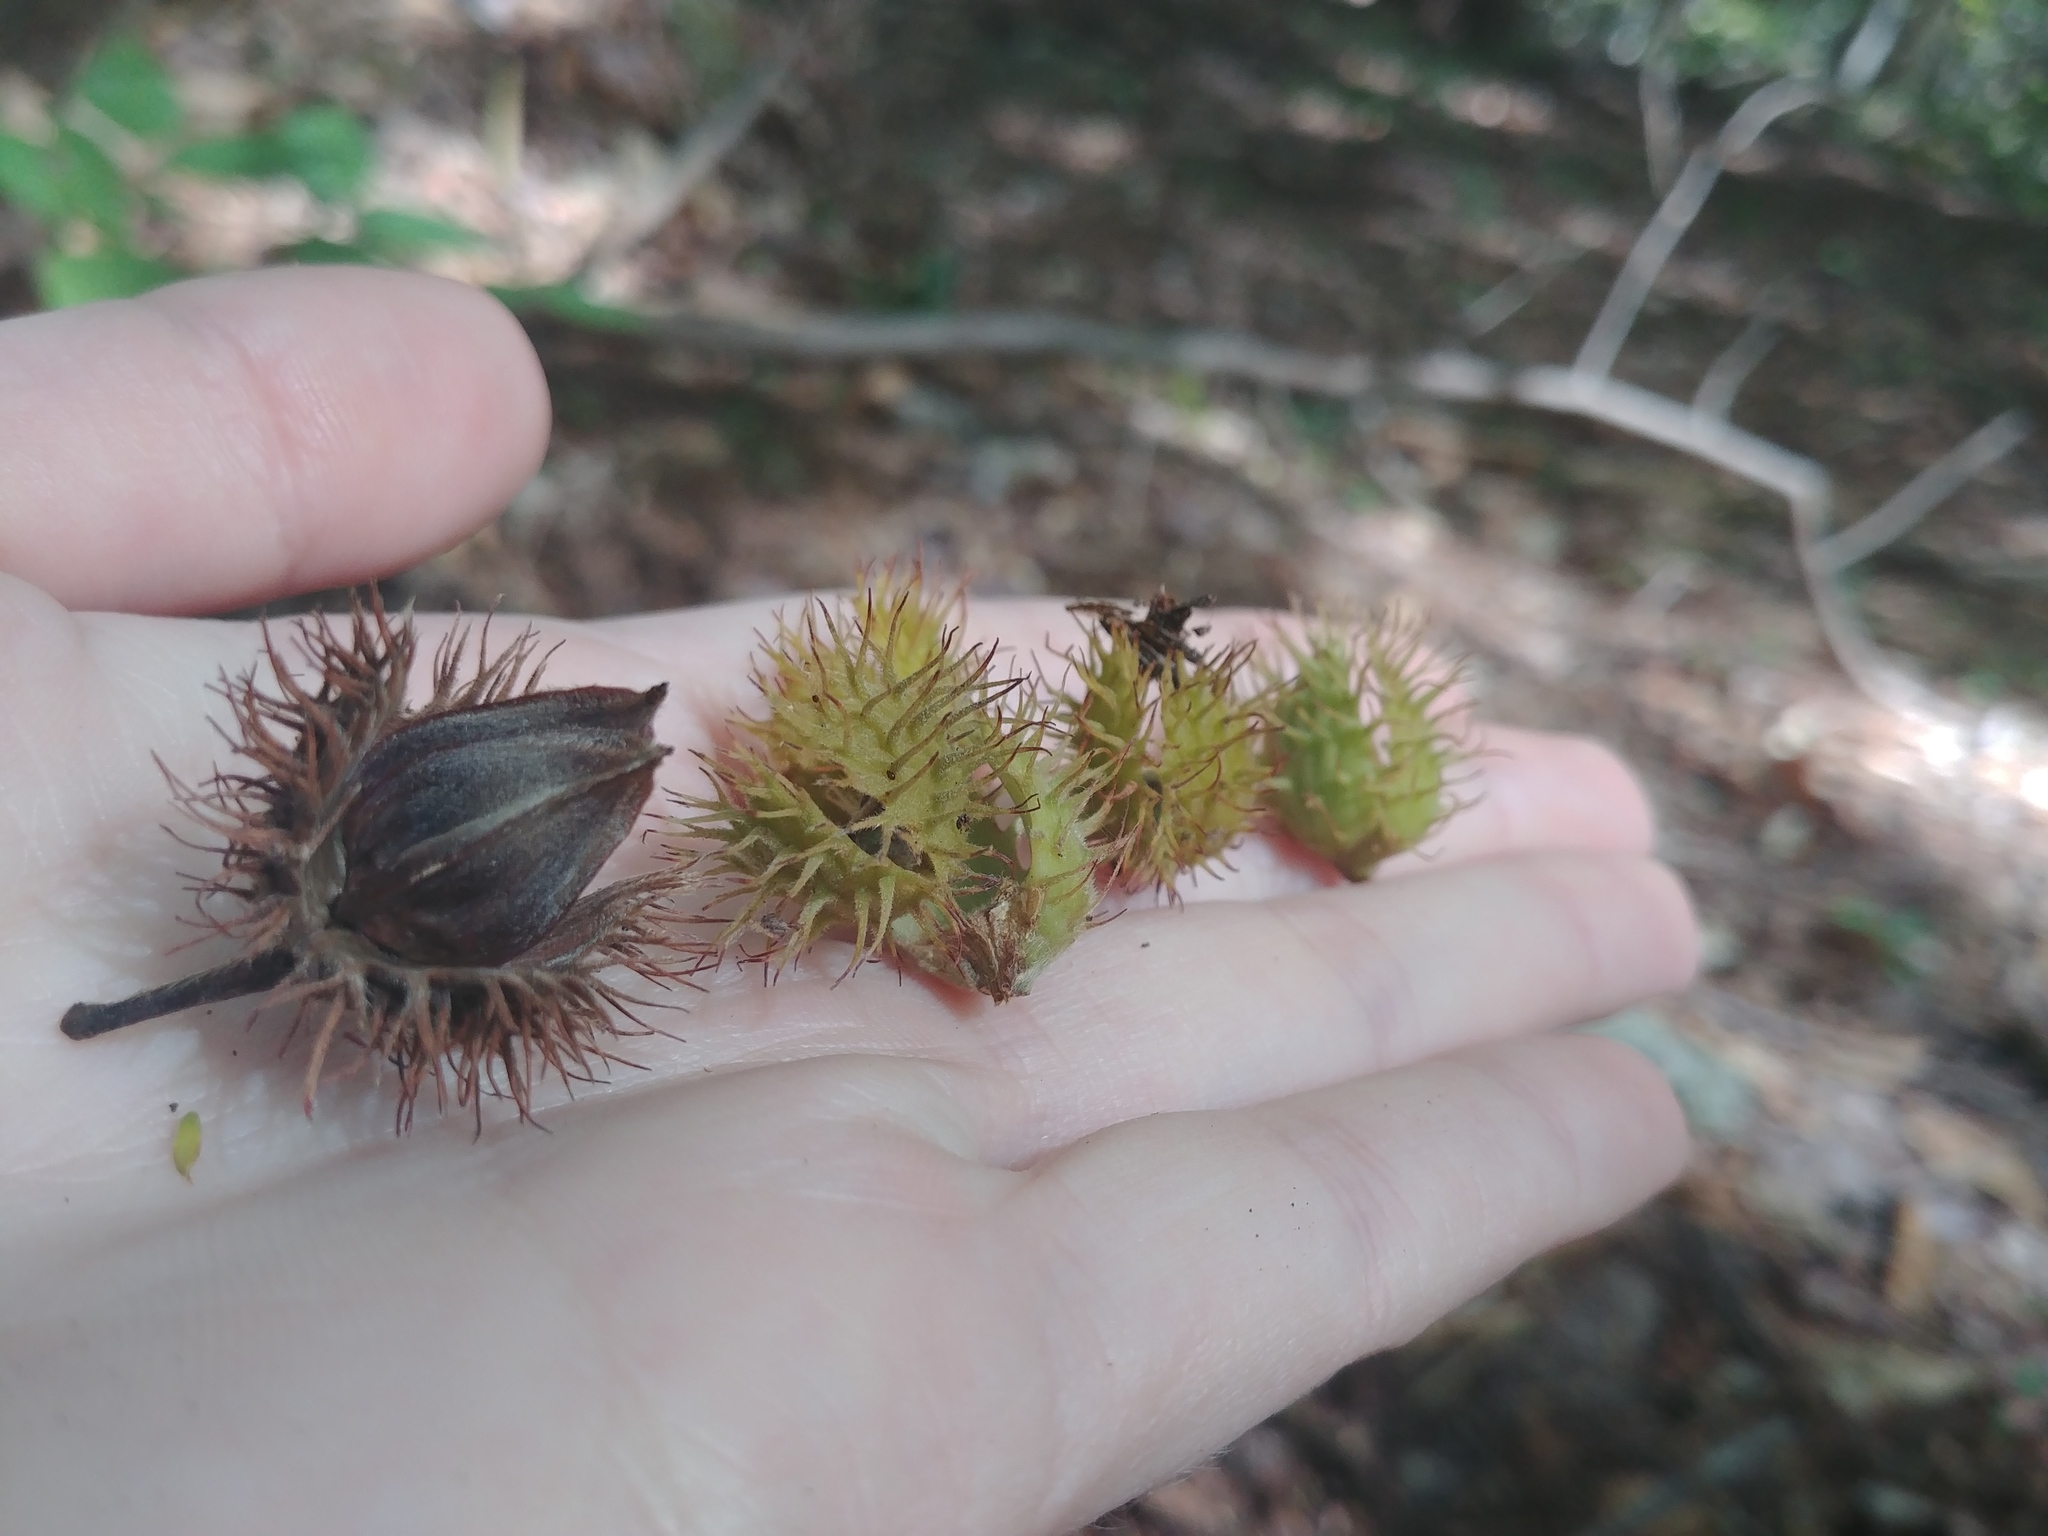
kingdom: Plantae
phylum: Tracheophyta
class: Magnoliopsida
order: Fagales
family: Fagaceae
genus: Fagus
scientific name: Fagus grandifolia
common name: American beech
